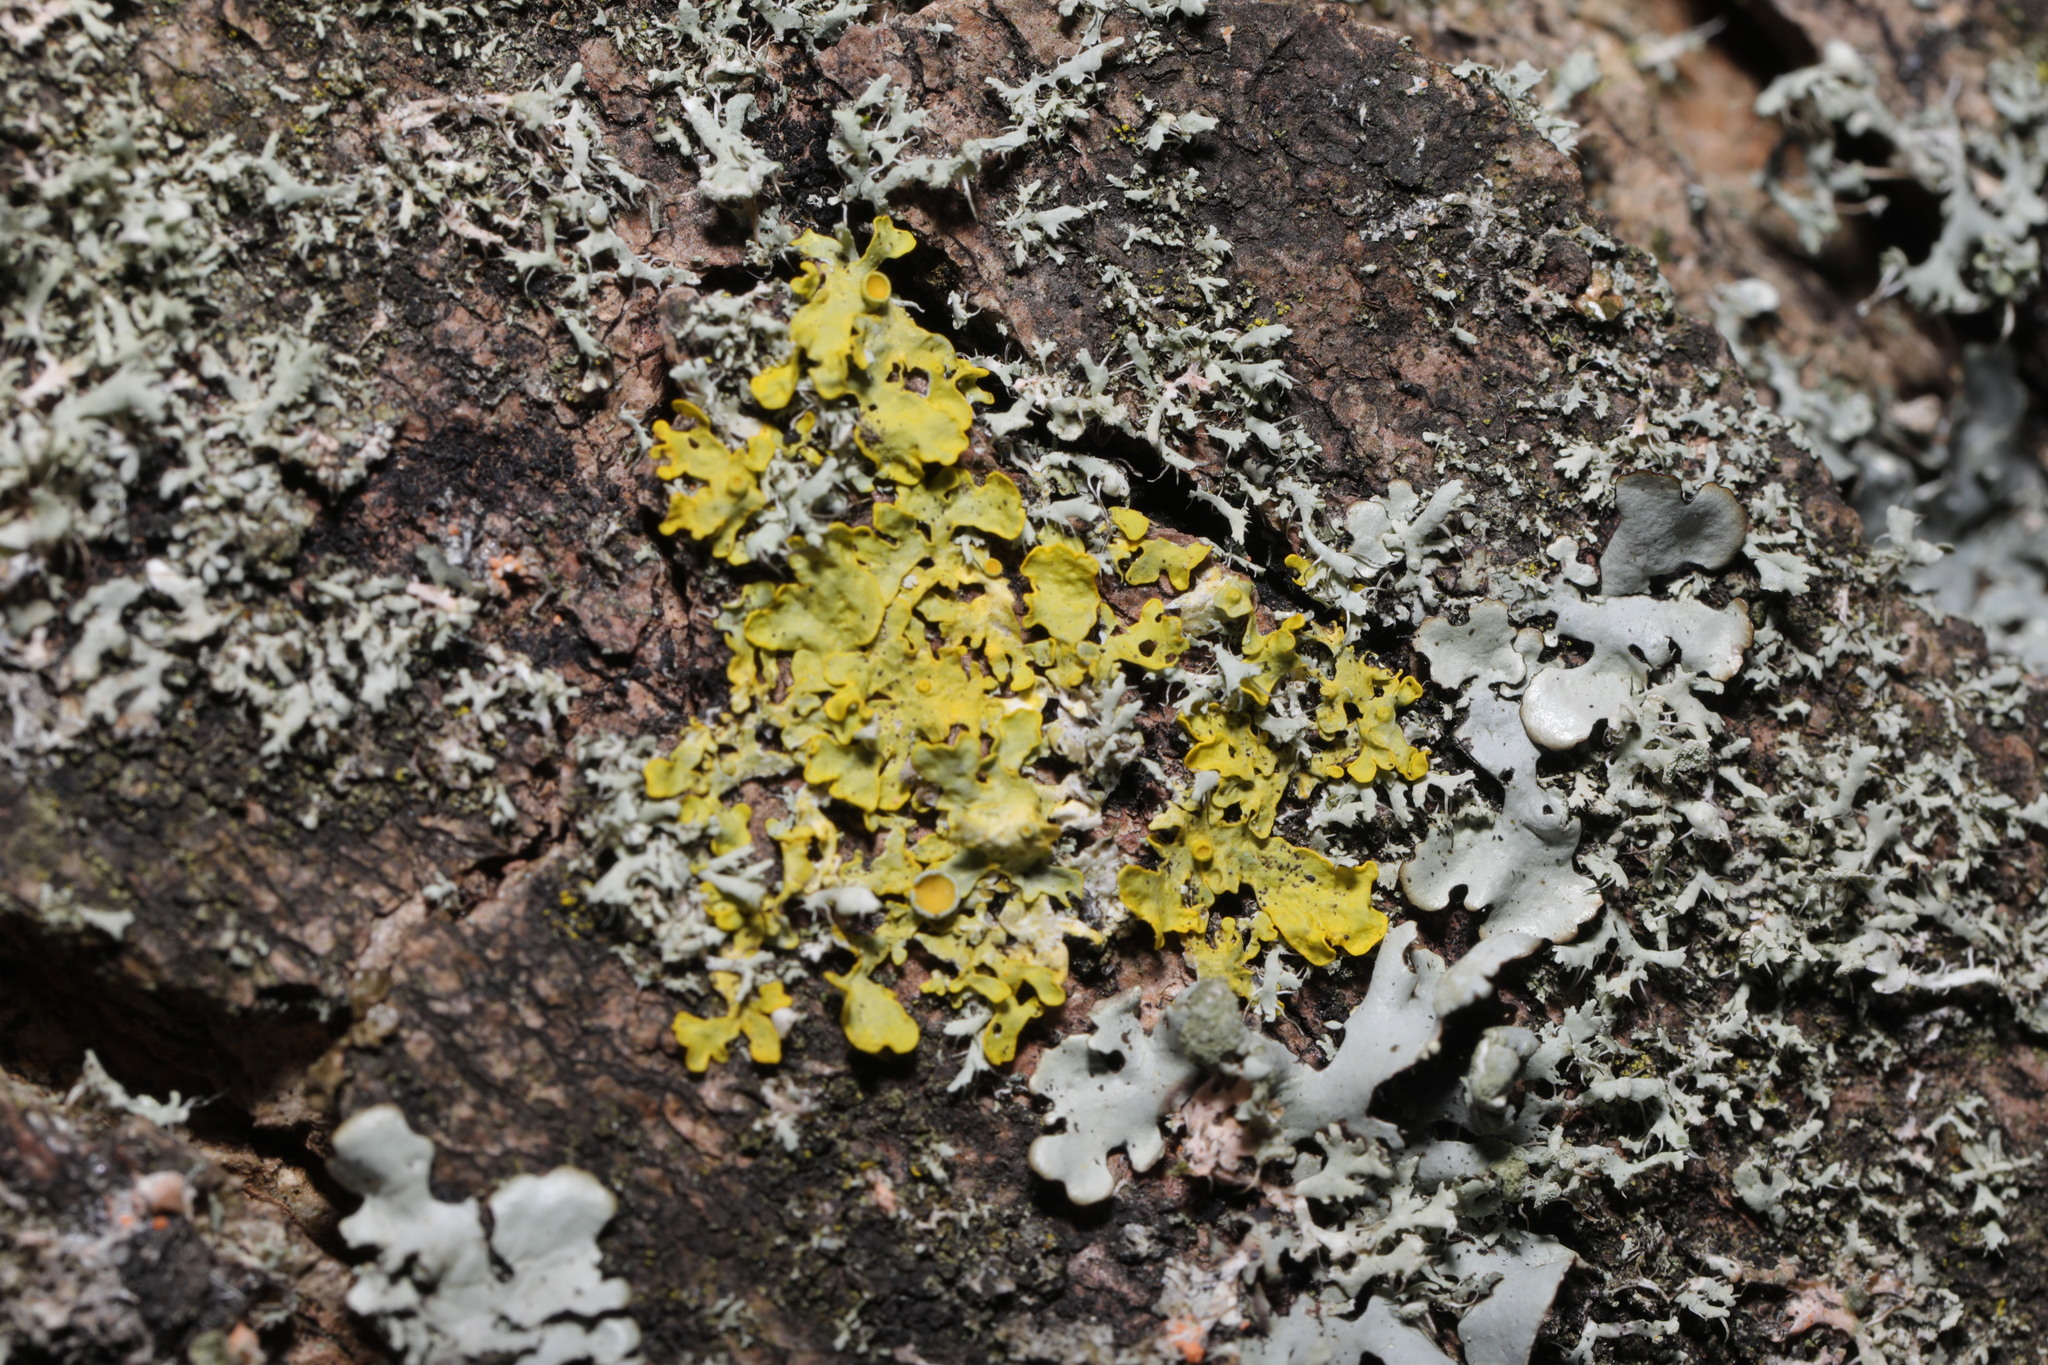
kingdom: Fungi
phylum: Ascomycota
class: Lecanoromycetes
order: Teloschistales
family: Teloschistaceae
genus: Xanthoria
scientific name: Xanthoria parietina
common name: Common orange lichen
